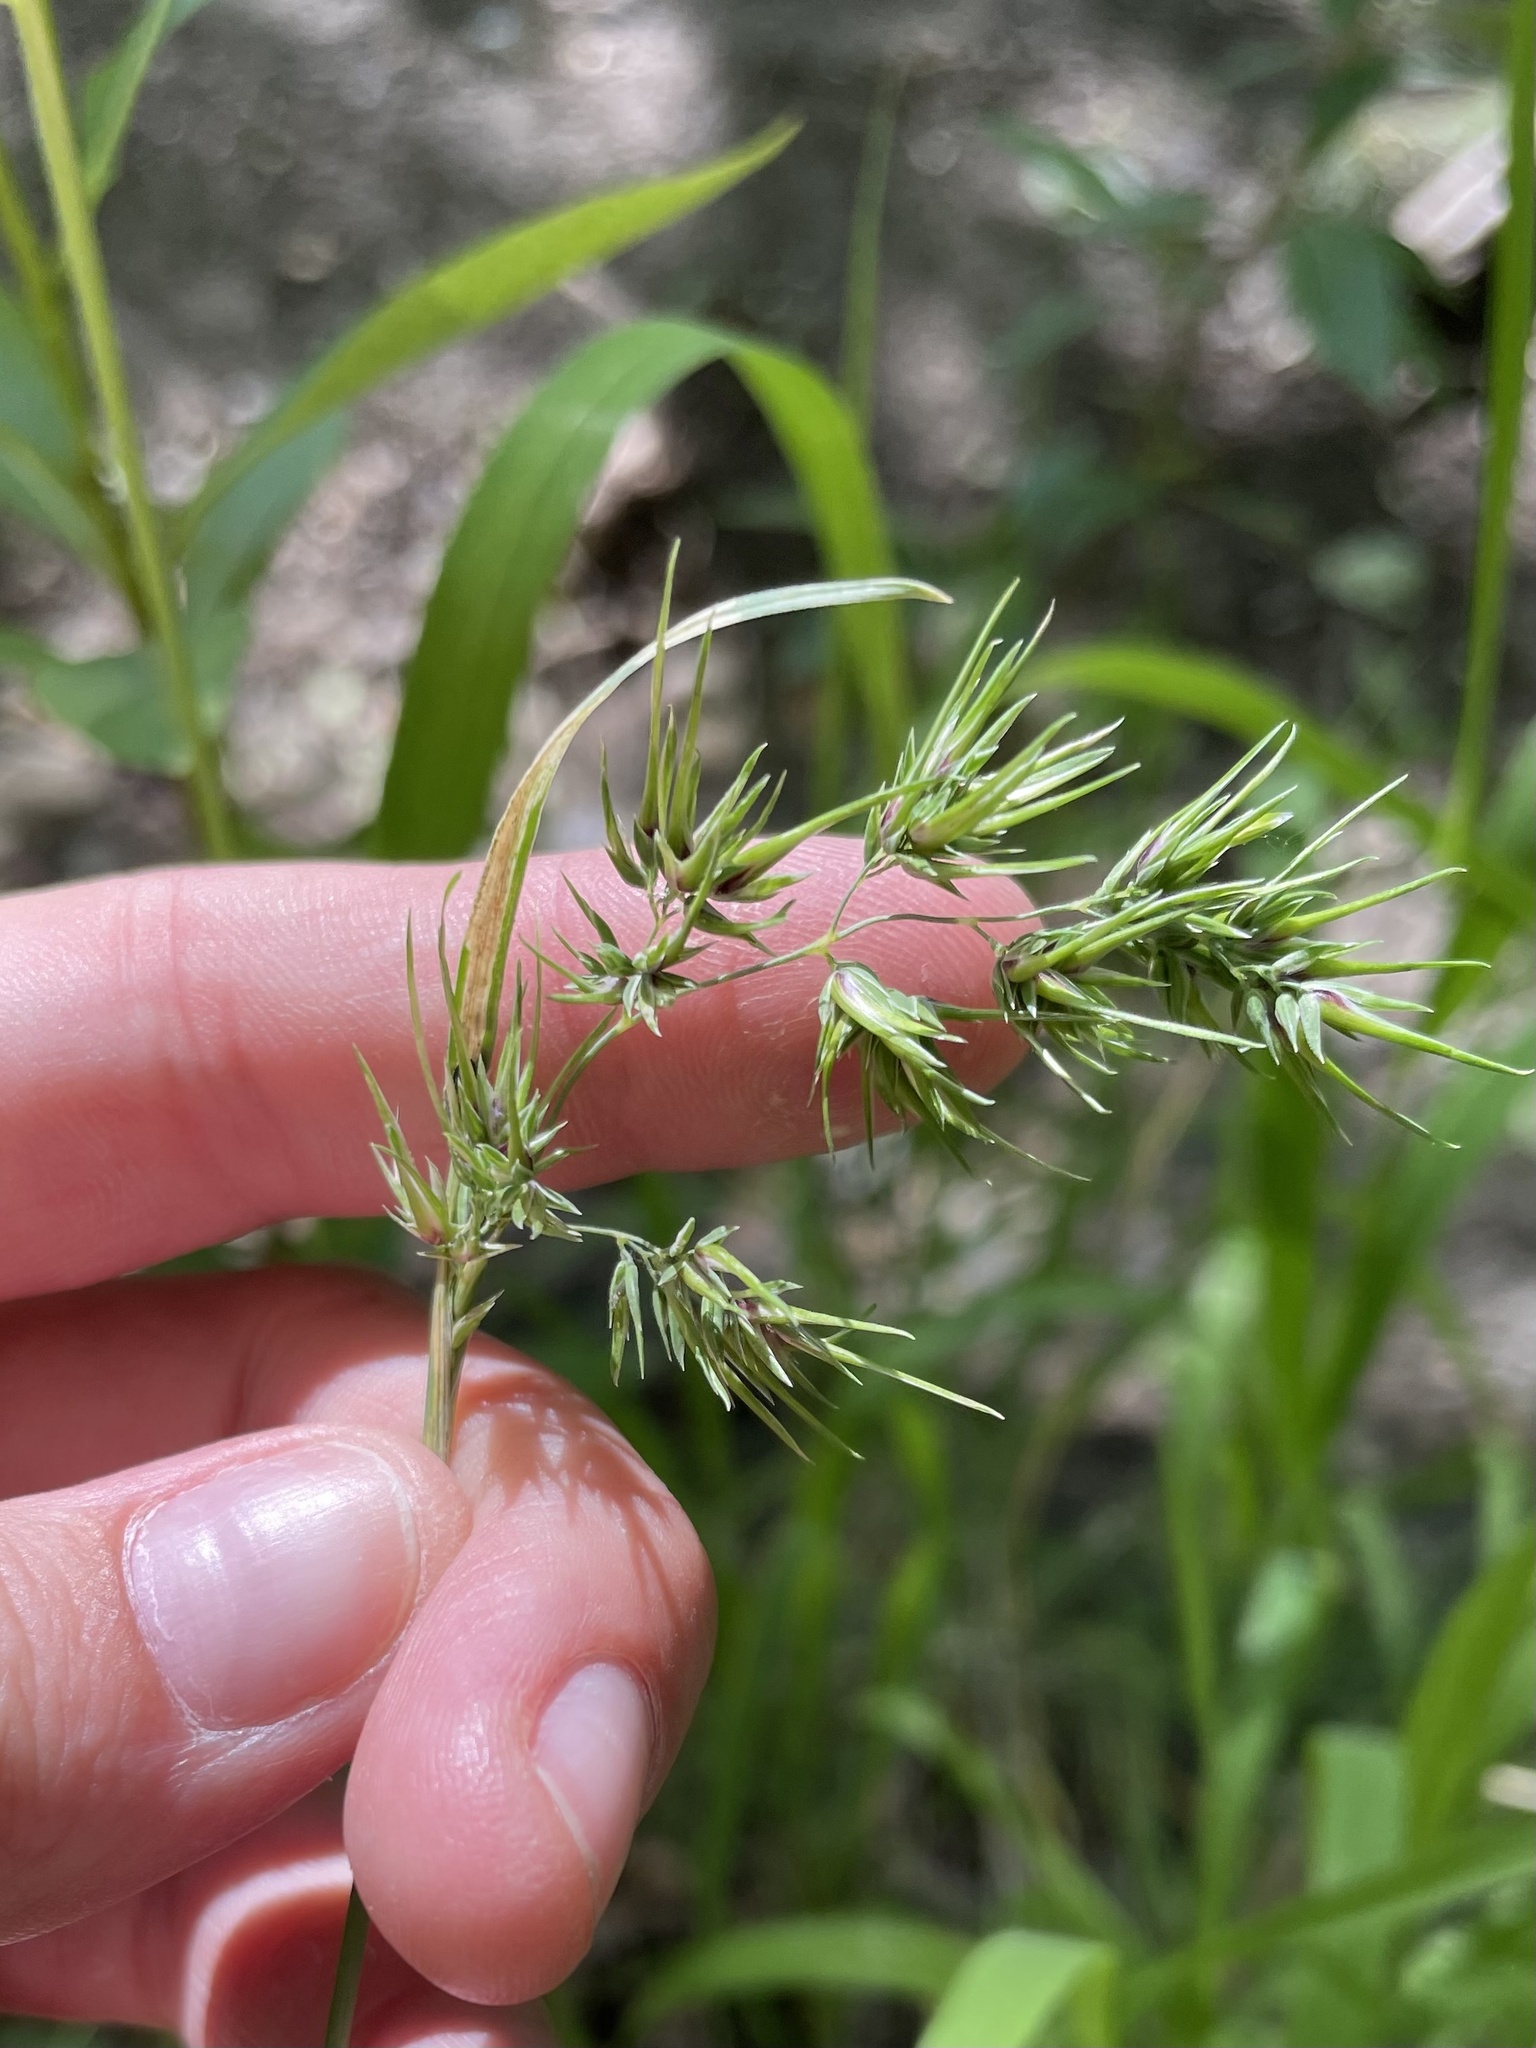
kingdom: Plantae
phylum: Tracheophyta
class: Liliopsida
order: Poales
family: Poaceae
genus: Poa
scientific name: Poa bulbosa
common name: Bulbous bluegrass
